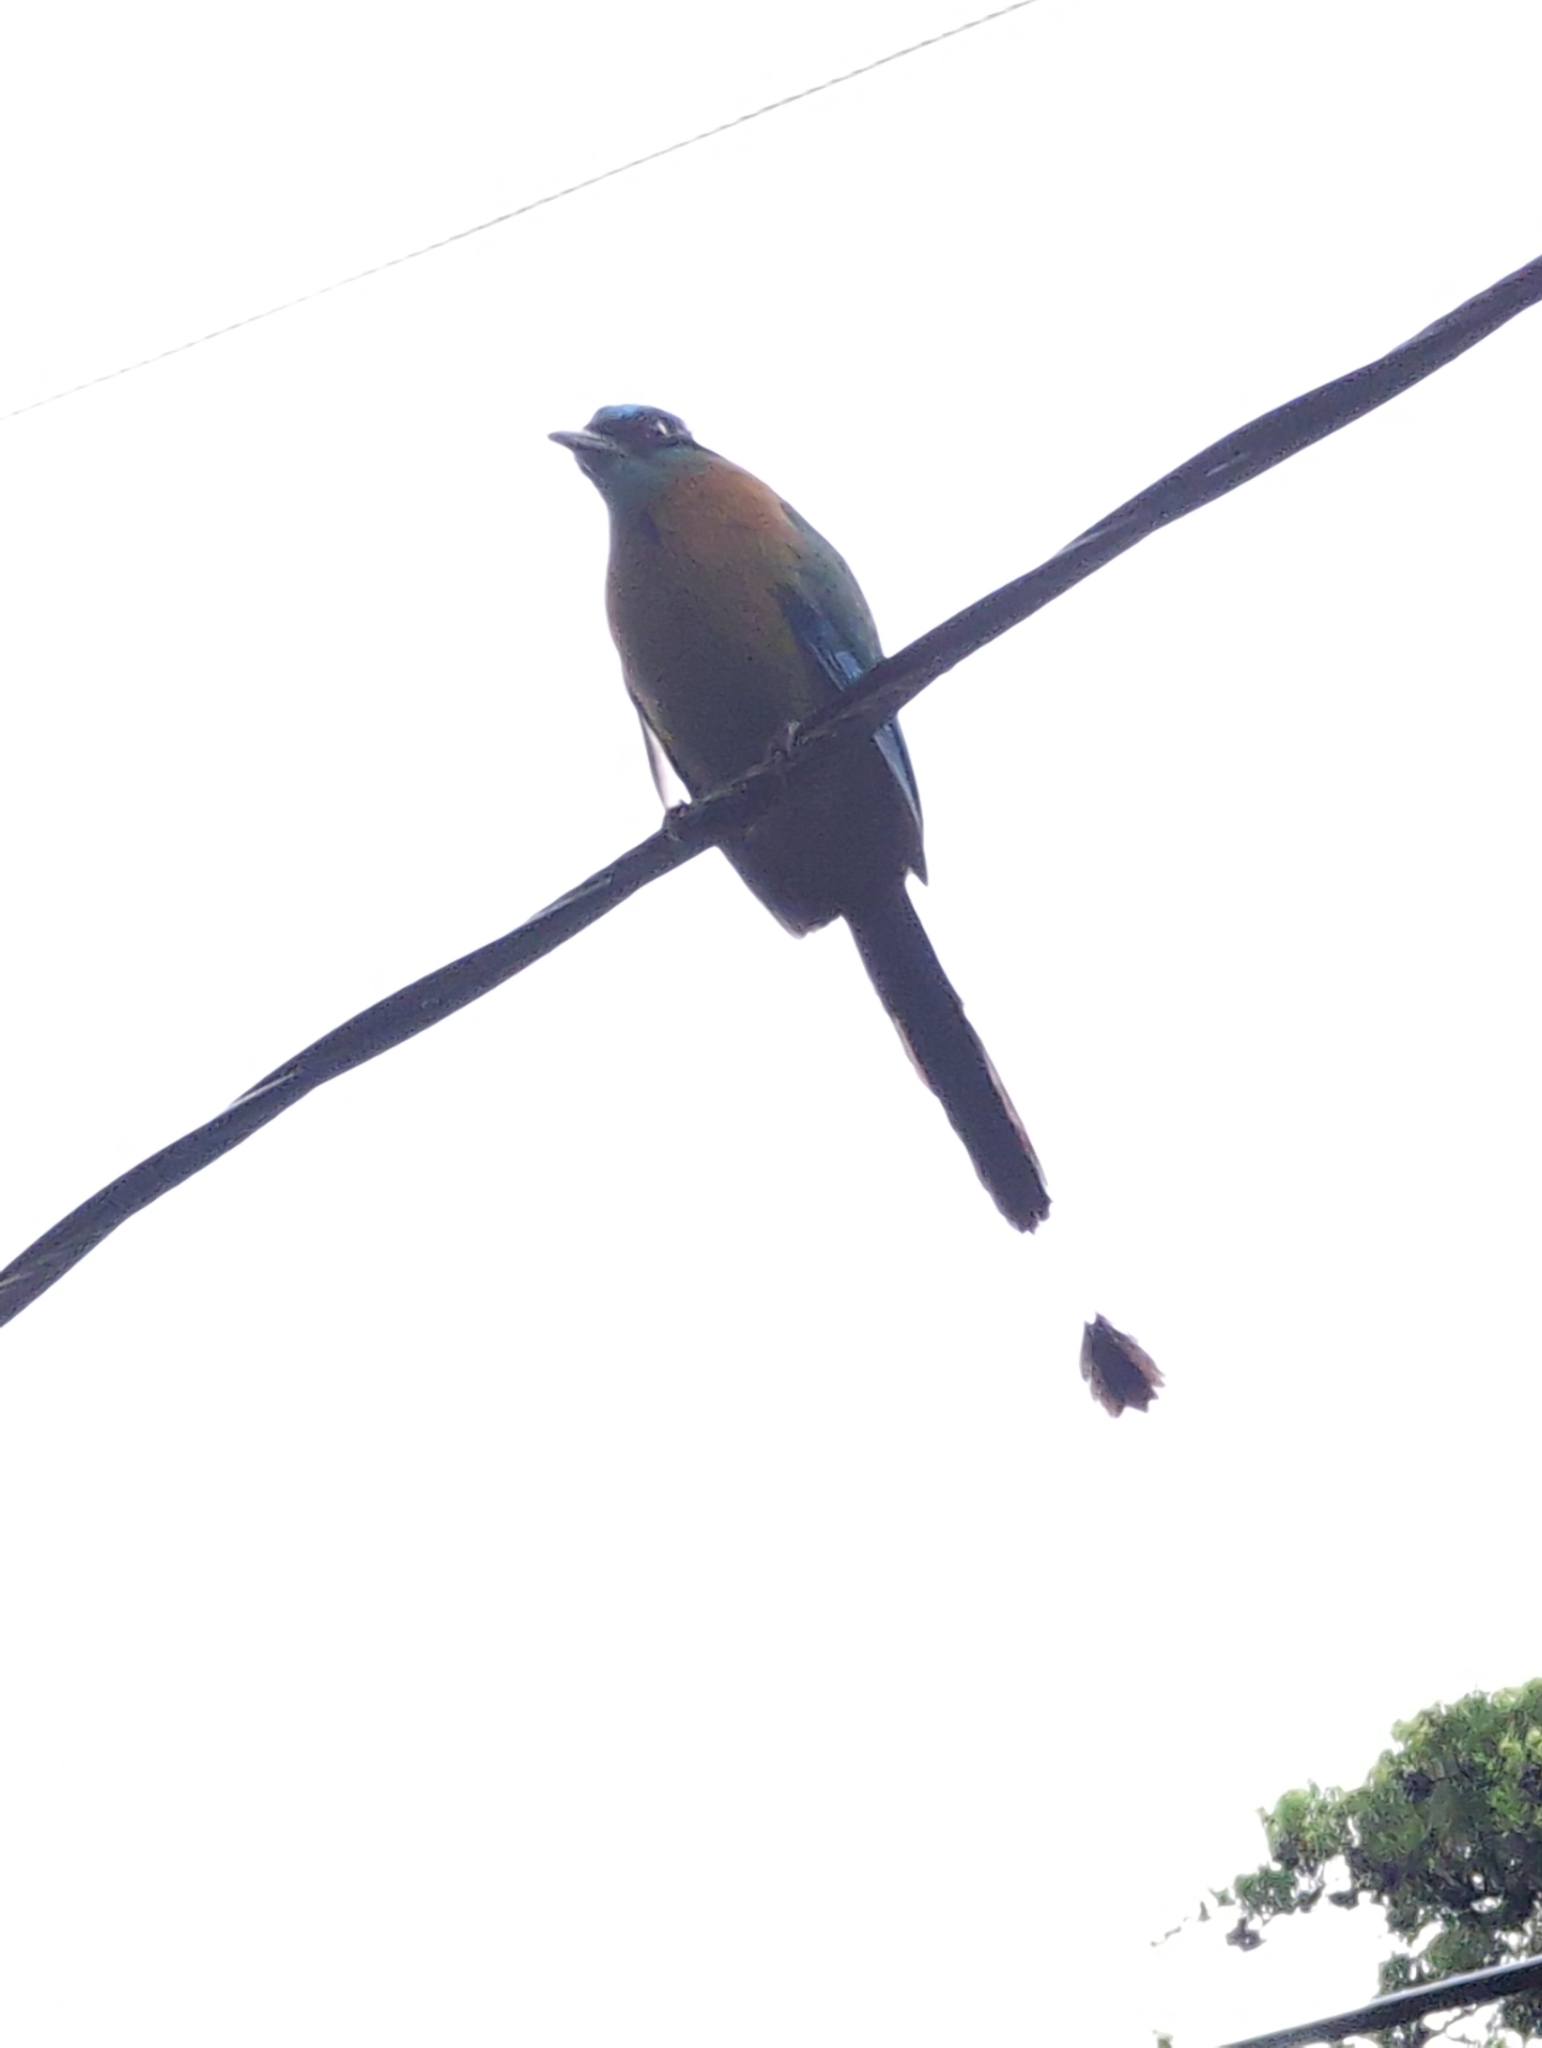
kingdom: Animalia
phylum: Chordata
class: Aves
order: Coraciiformes
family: Momotidae
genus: Momotus
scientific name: Momotus lessonii
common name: Lesson's motmot
